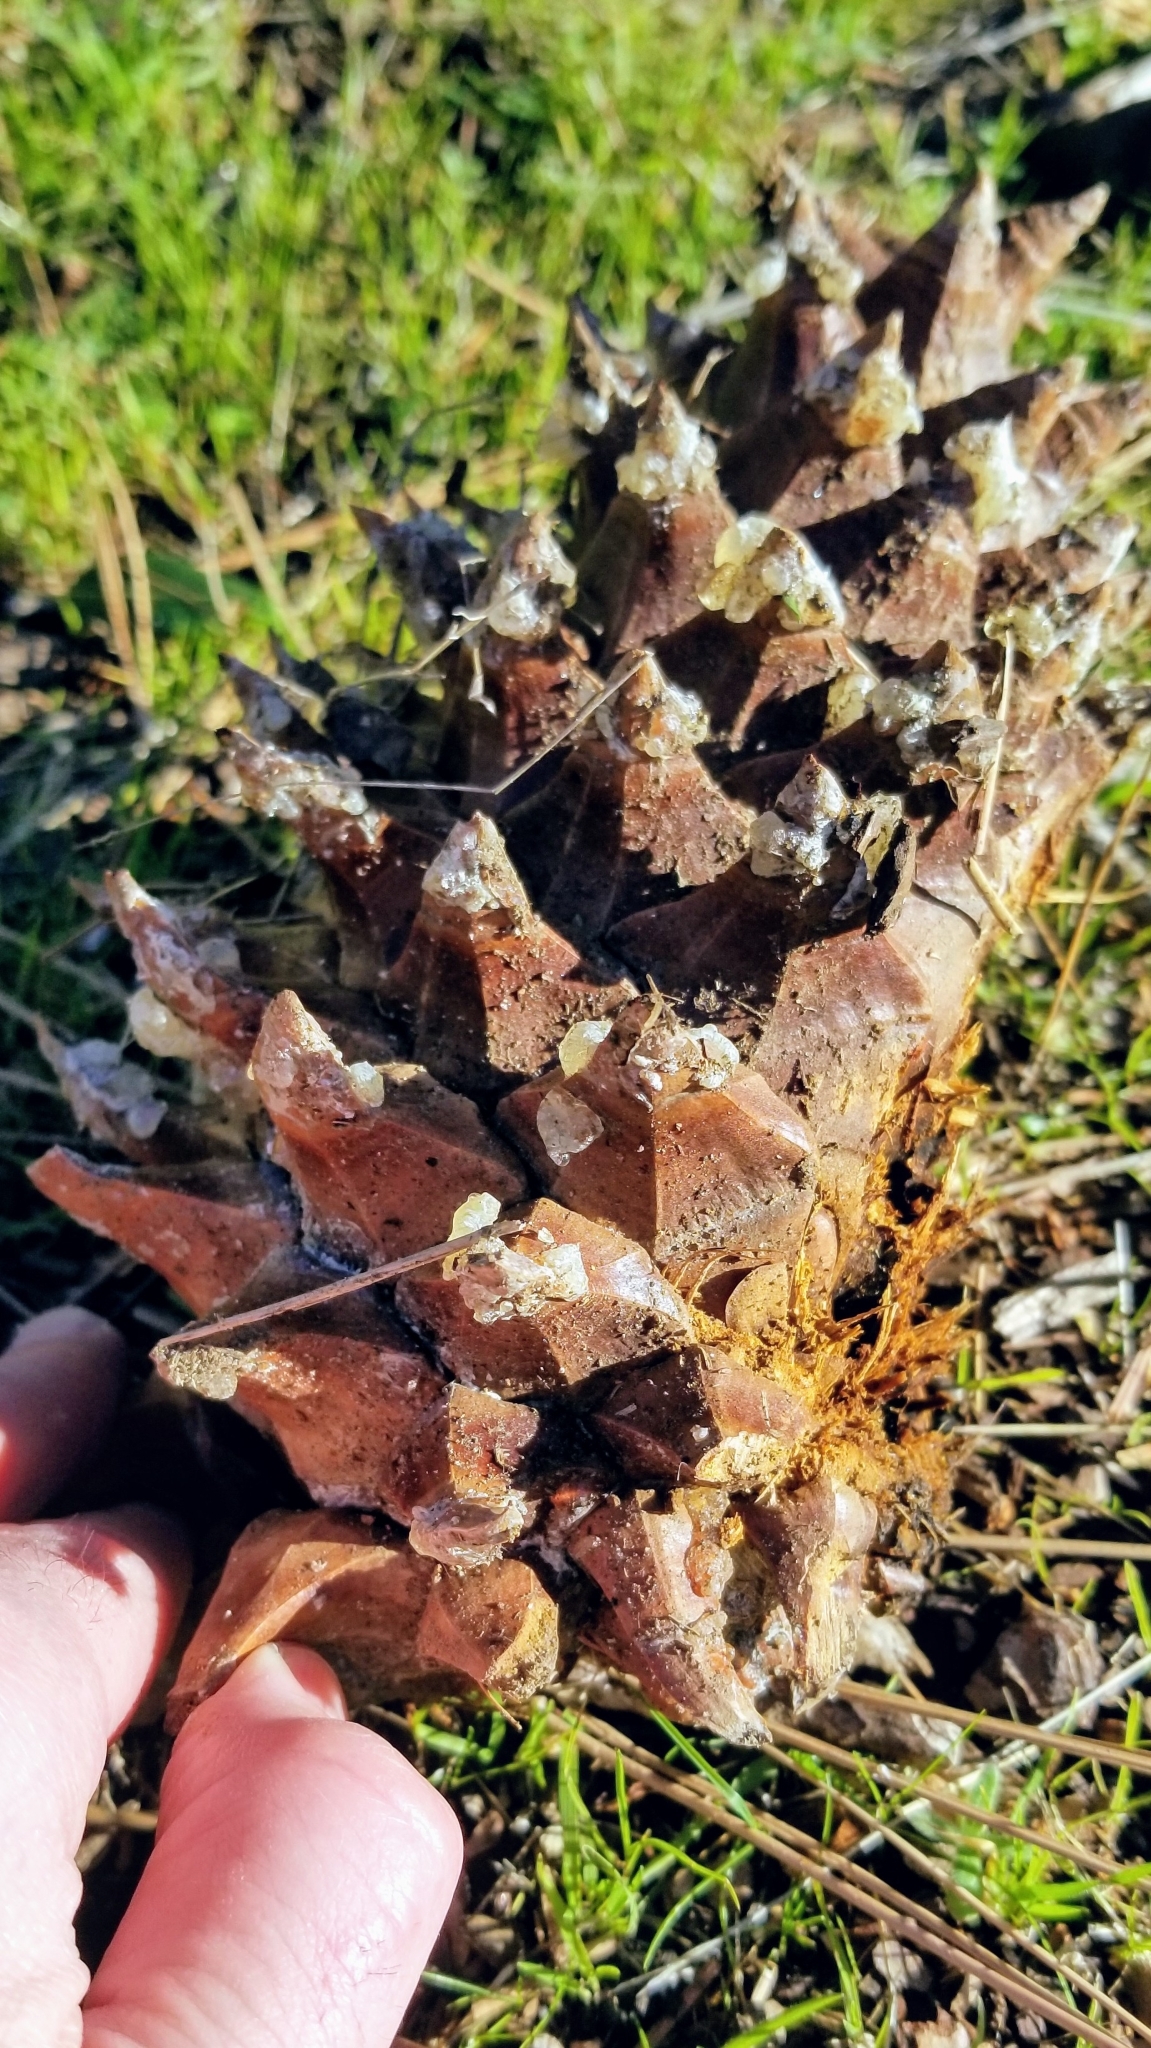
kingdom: Plantae
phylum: Tracheophyta
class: Pinopsida
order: Pinales
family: Pinaceae
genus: Pinus
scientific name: Pinus sabiniana
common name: Bull pine
